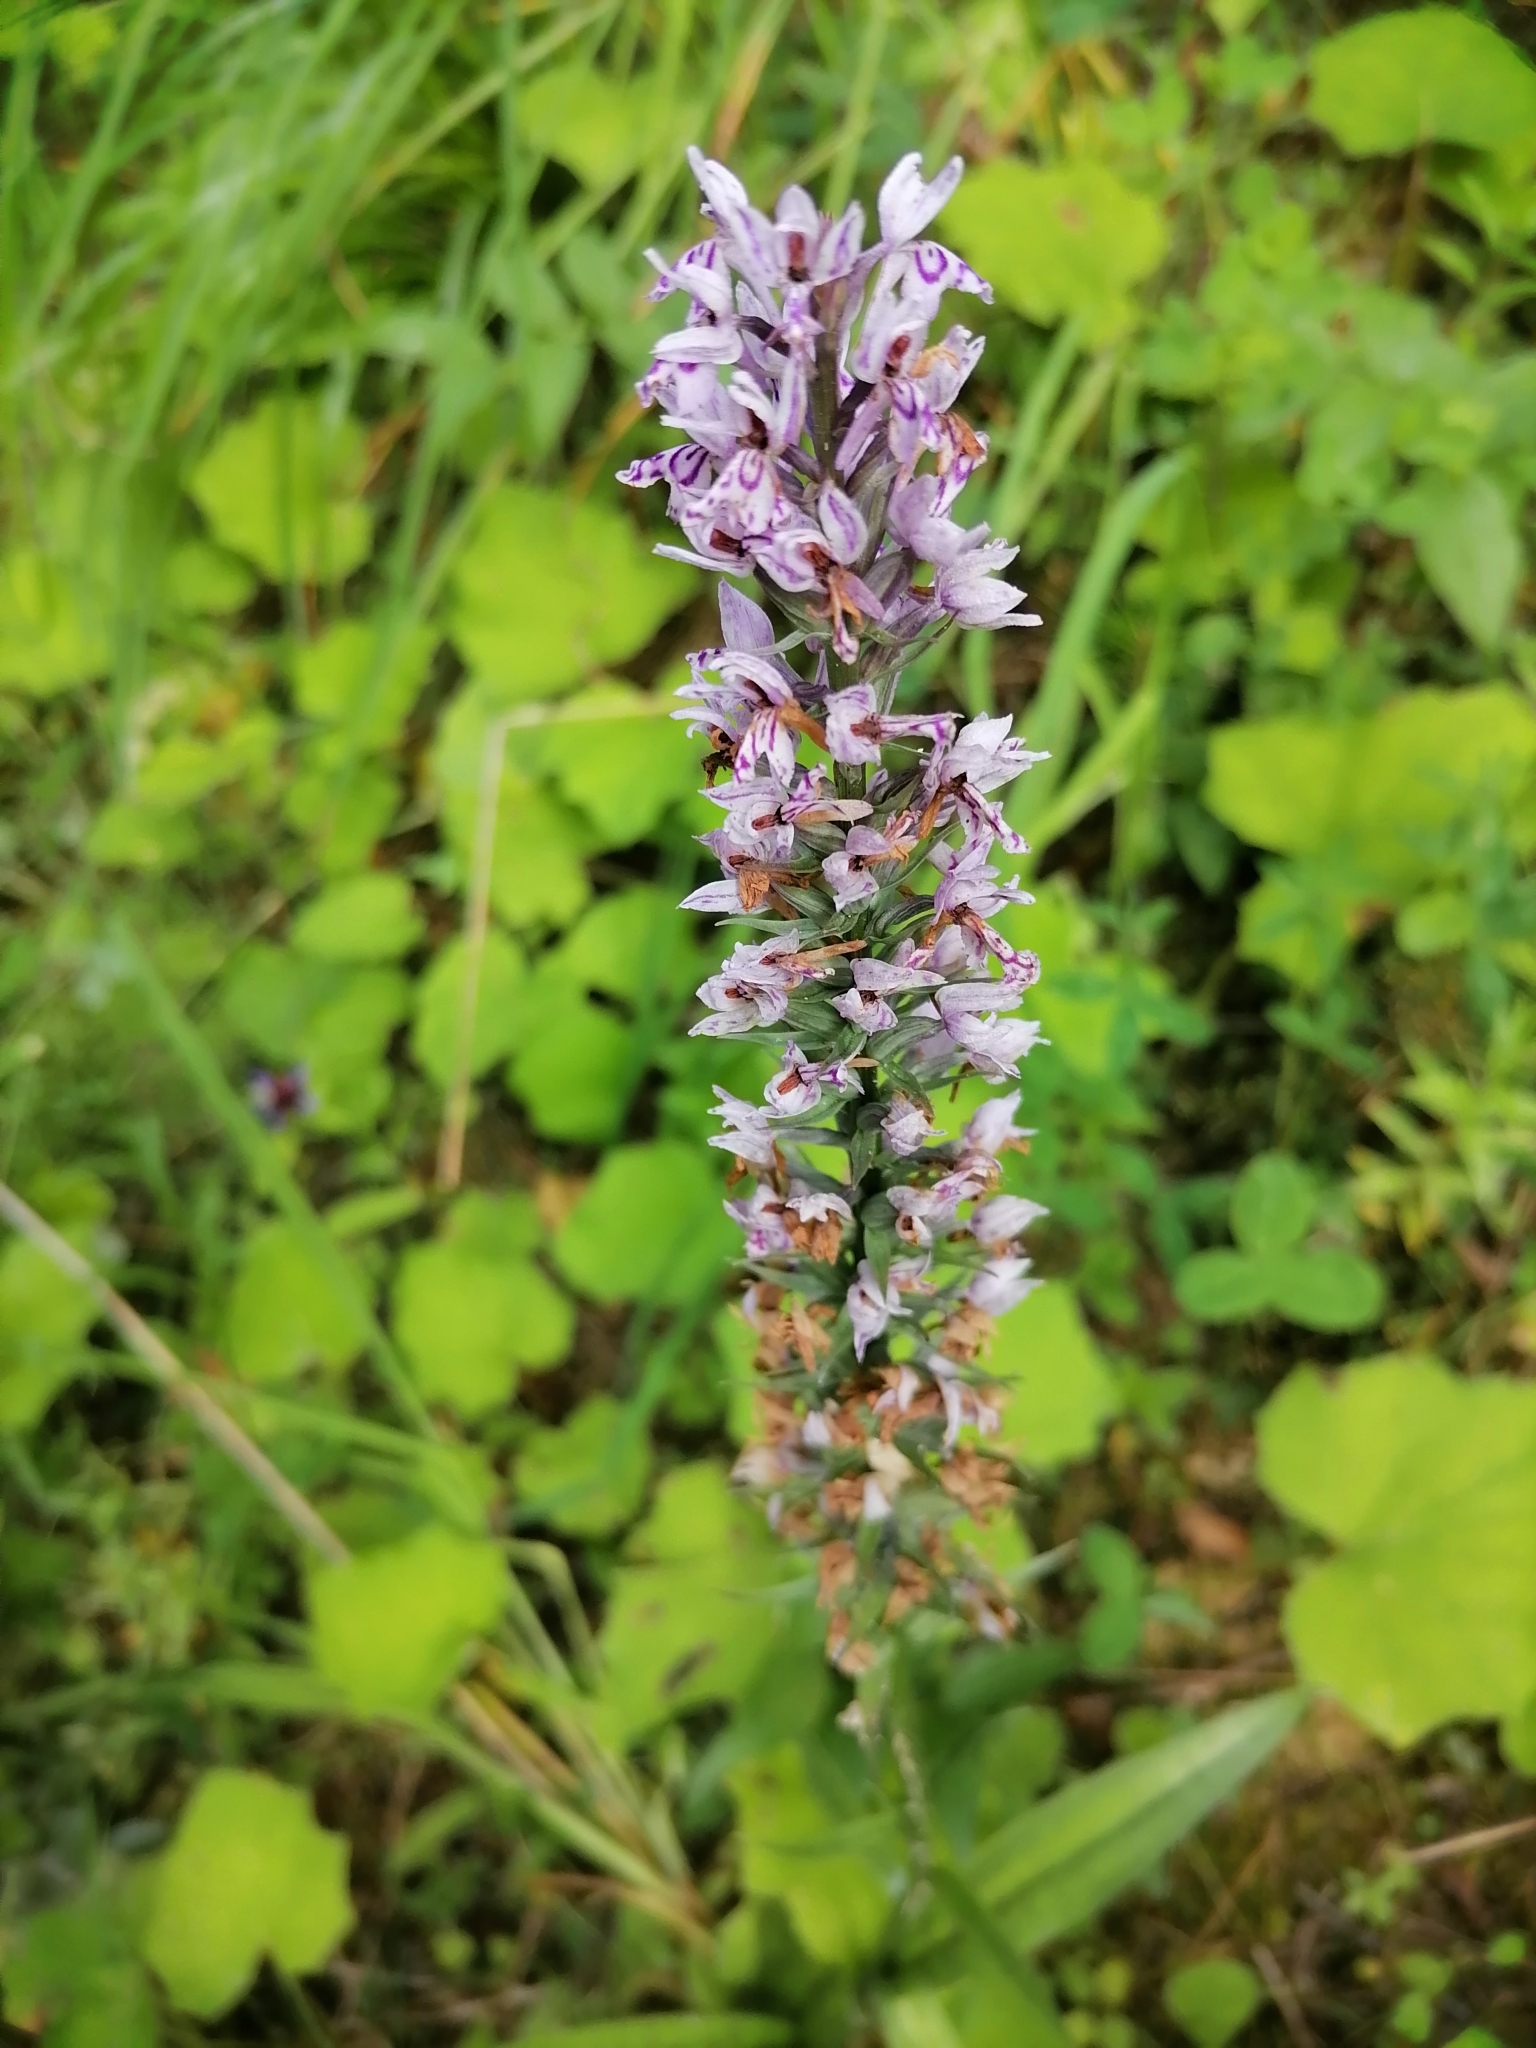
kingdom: Plantae
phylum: Tracheophyta
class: Liliopsida
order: Asparagales
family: Orchidaceae
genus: Dactylorhiza
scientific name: Dactylorhiza maculata
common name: Heath spotted-orchid
